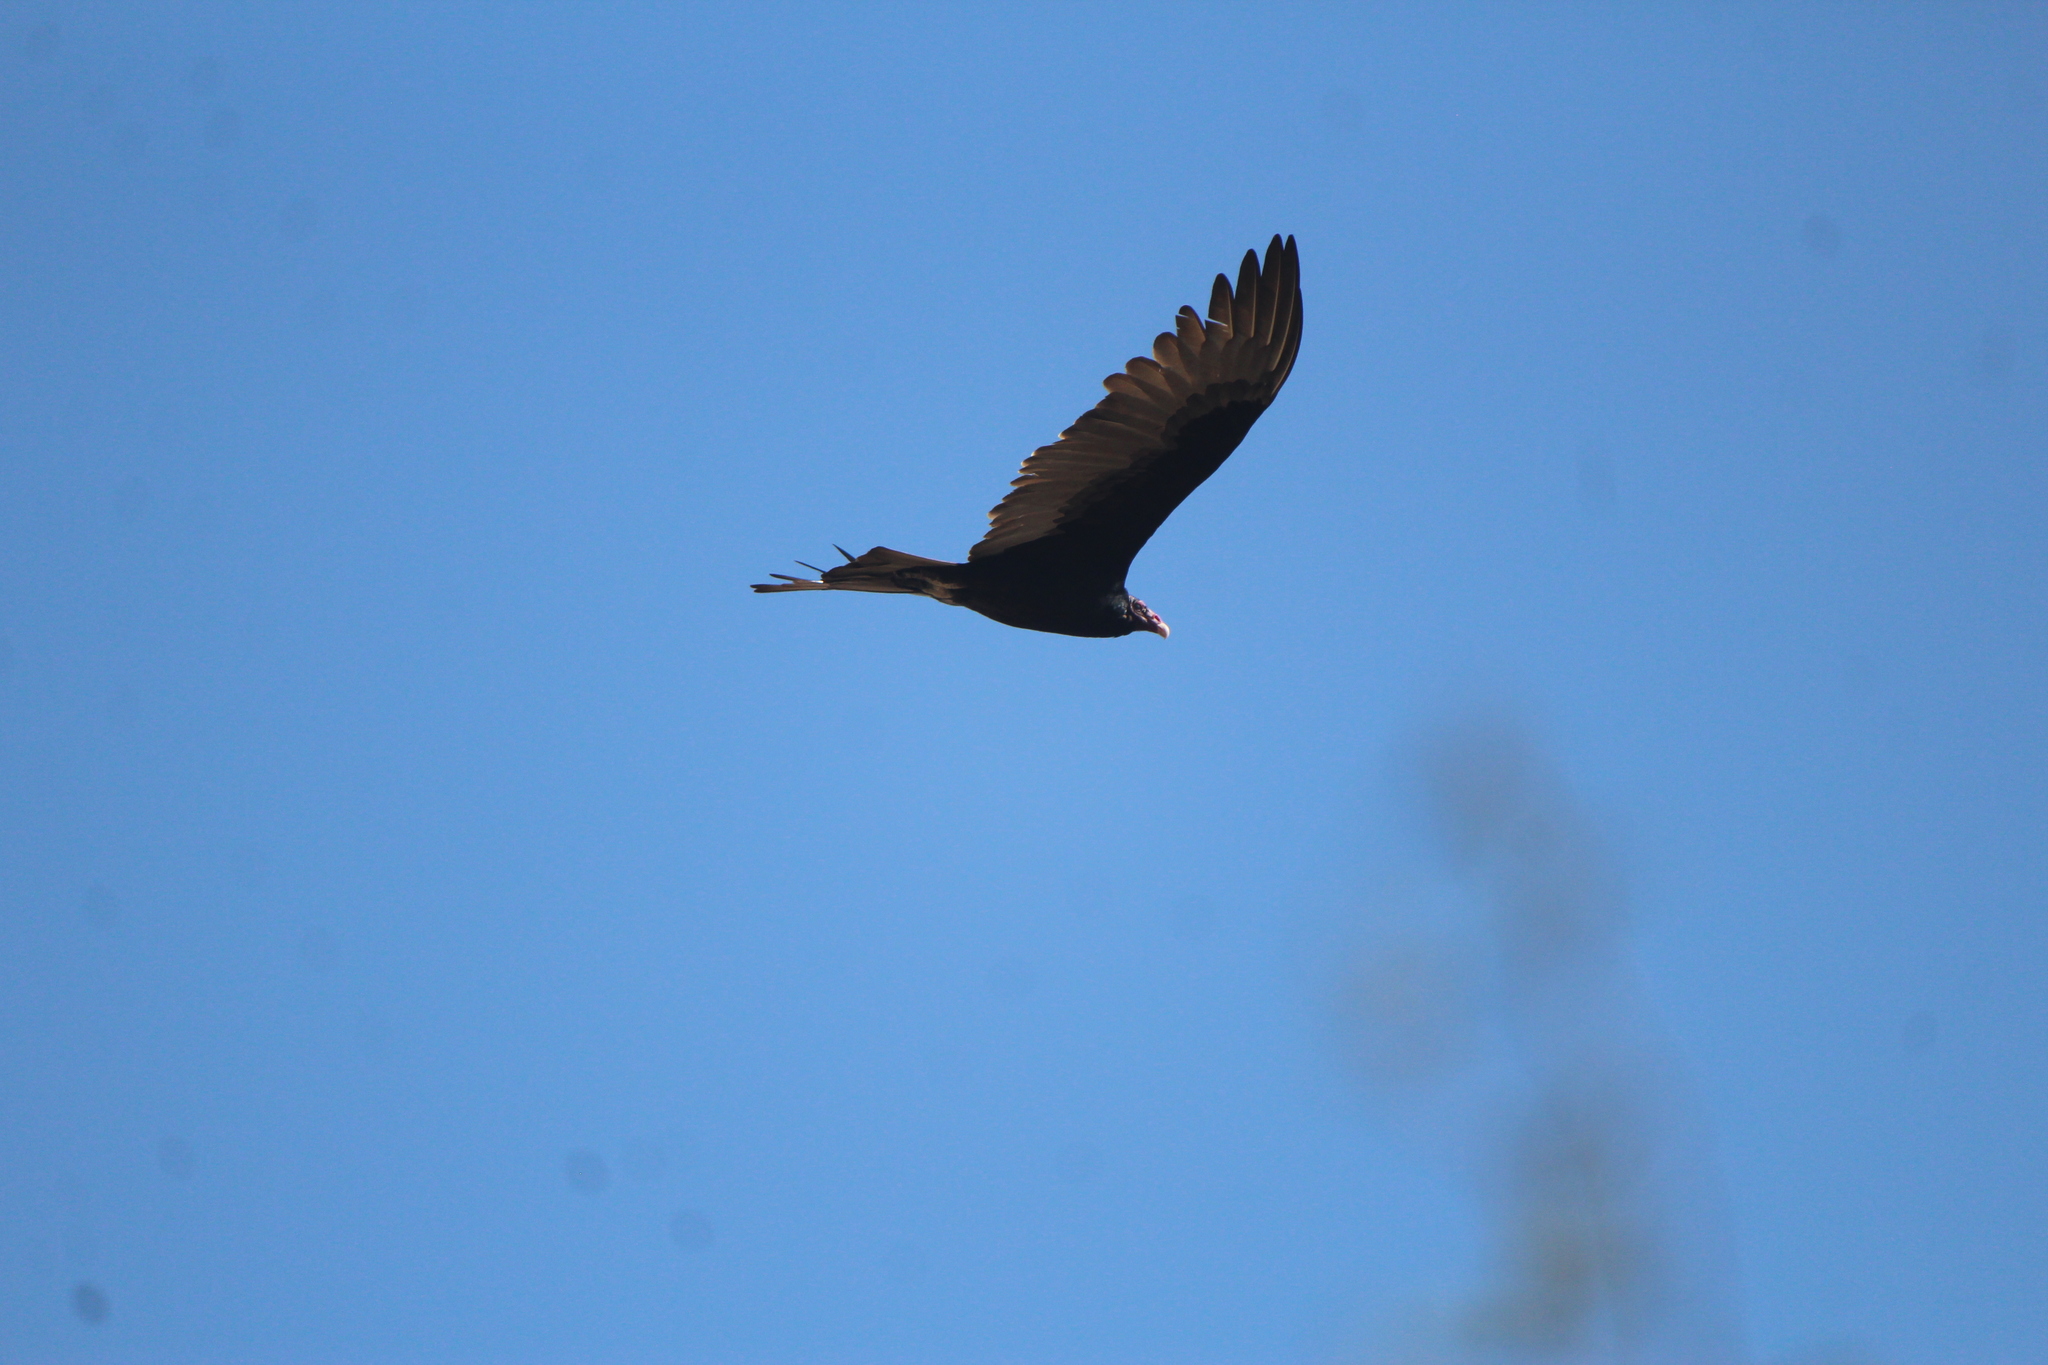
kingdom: Animalia
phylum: Chordata
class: Aves
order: Accipitriformes
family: Cathartidae
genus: Cathartes
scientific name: Cathartes aura
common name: Turkey vulture
